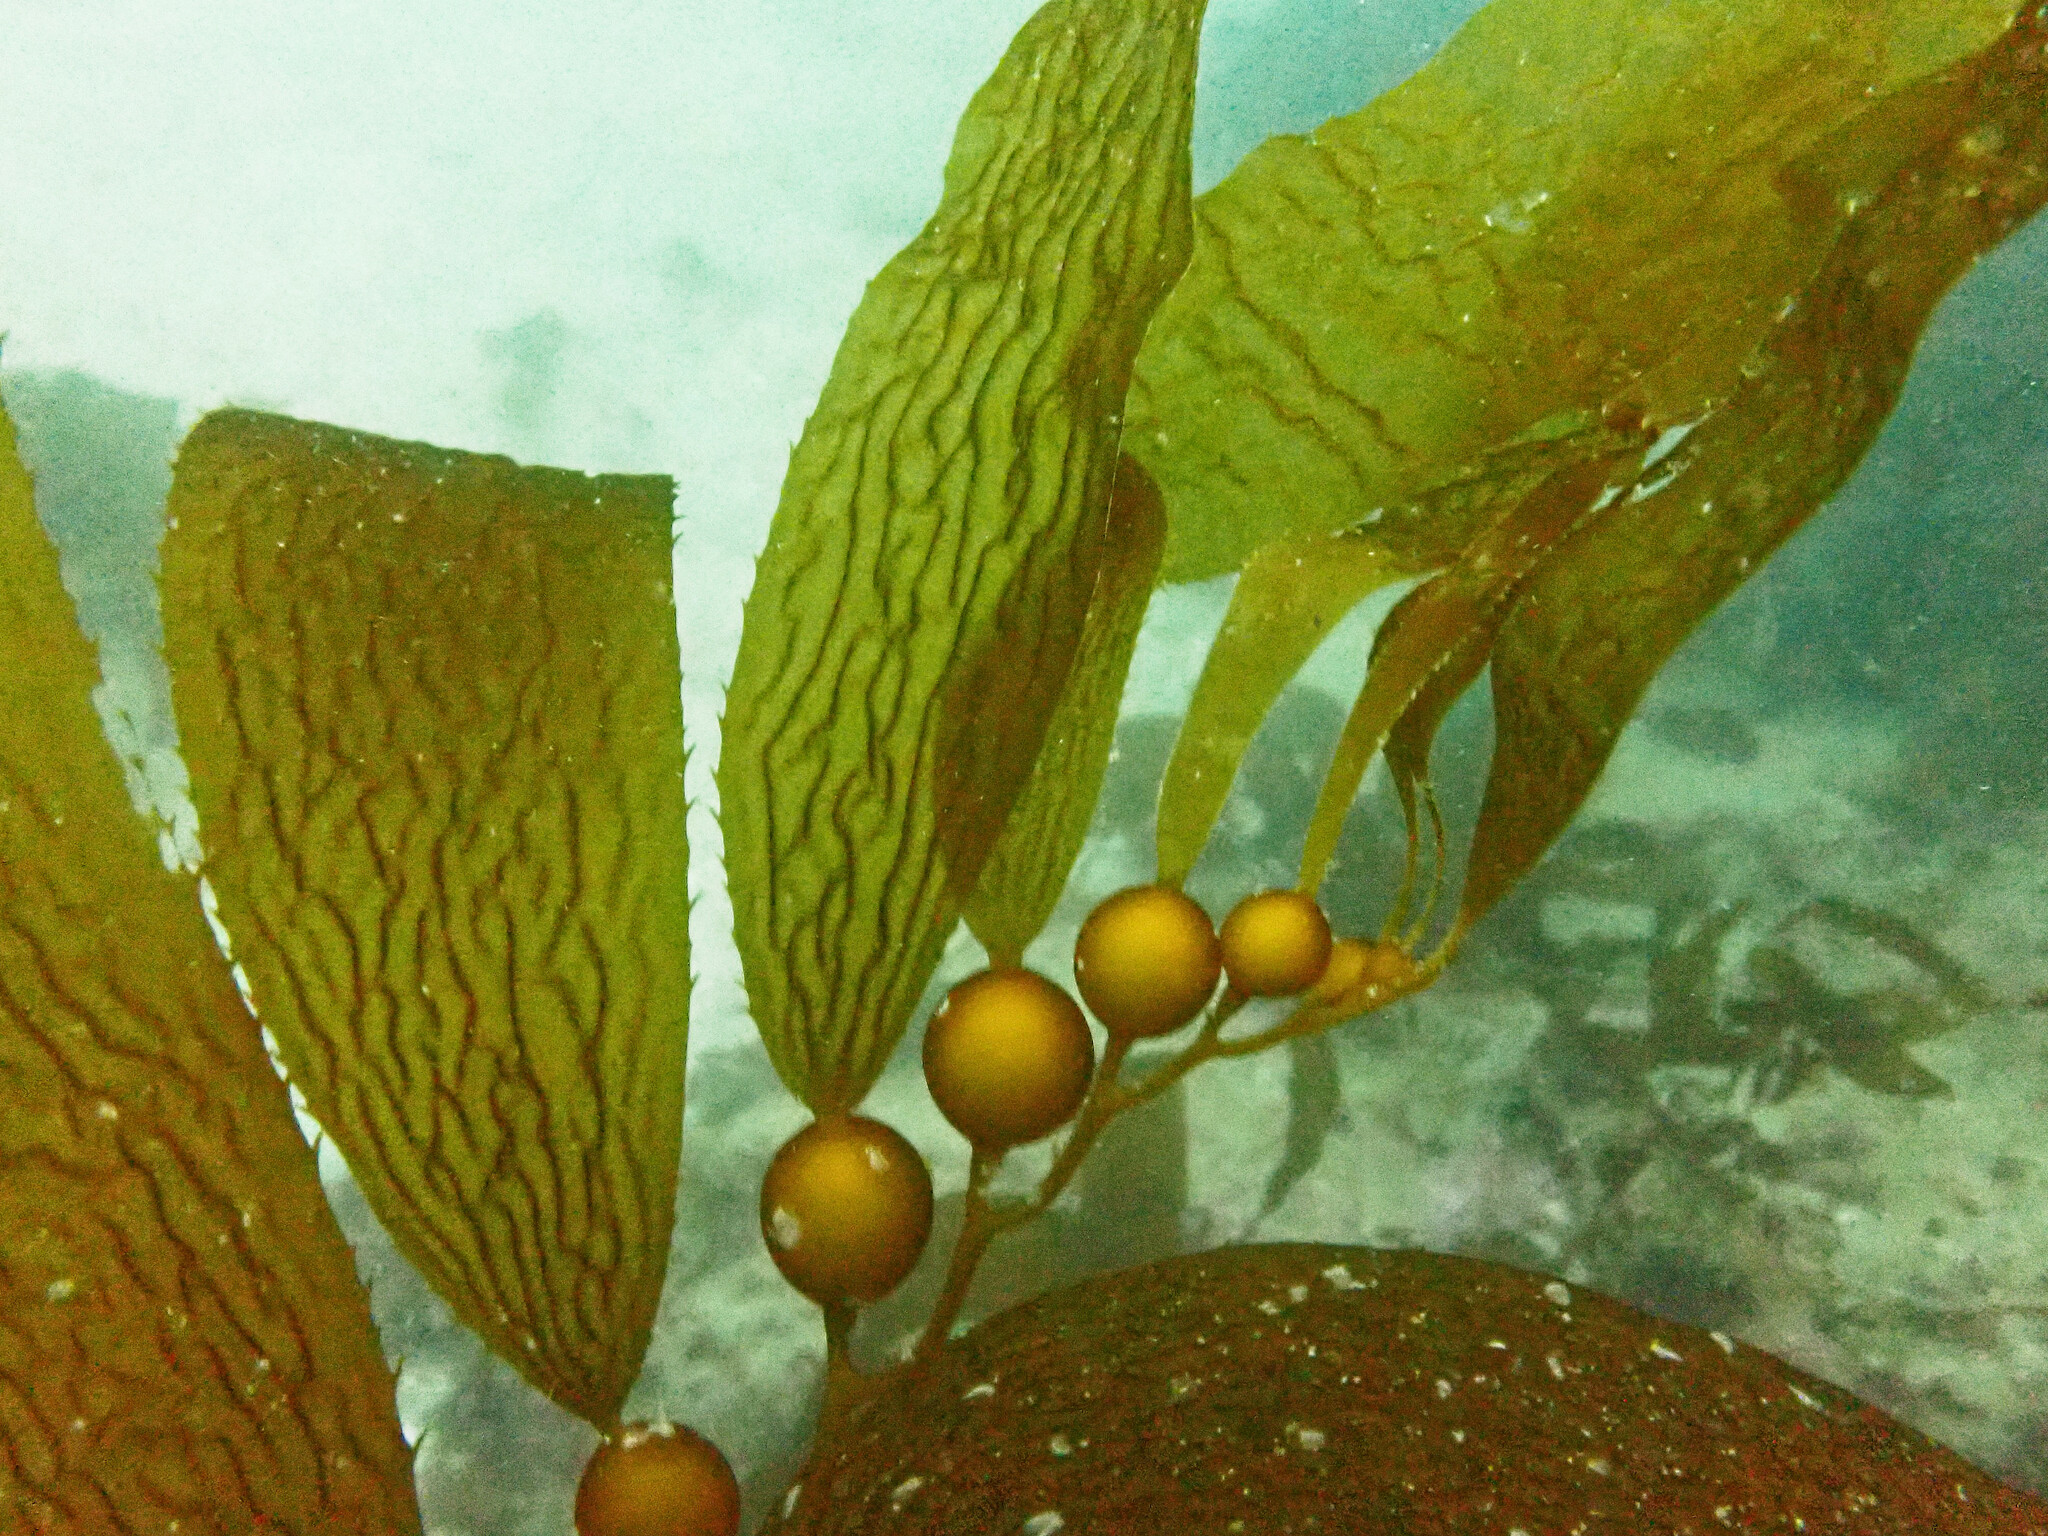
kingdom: Chromista
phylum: Ochrophyta
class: Phaeophyceae
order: Laminariales
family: Laminariaceae
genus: Macrocystis
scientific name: Macrocystis pyrifera
